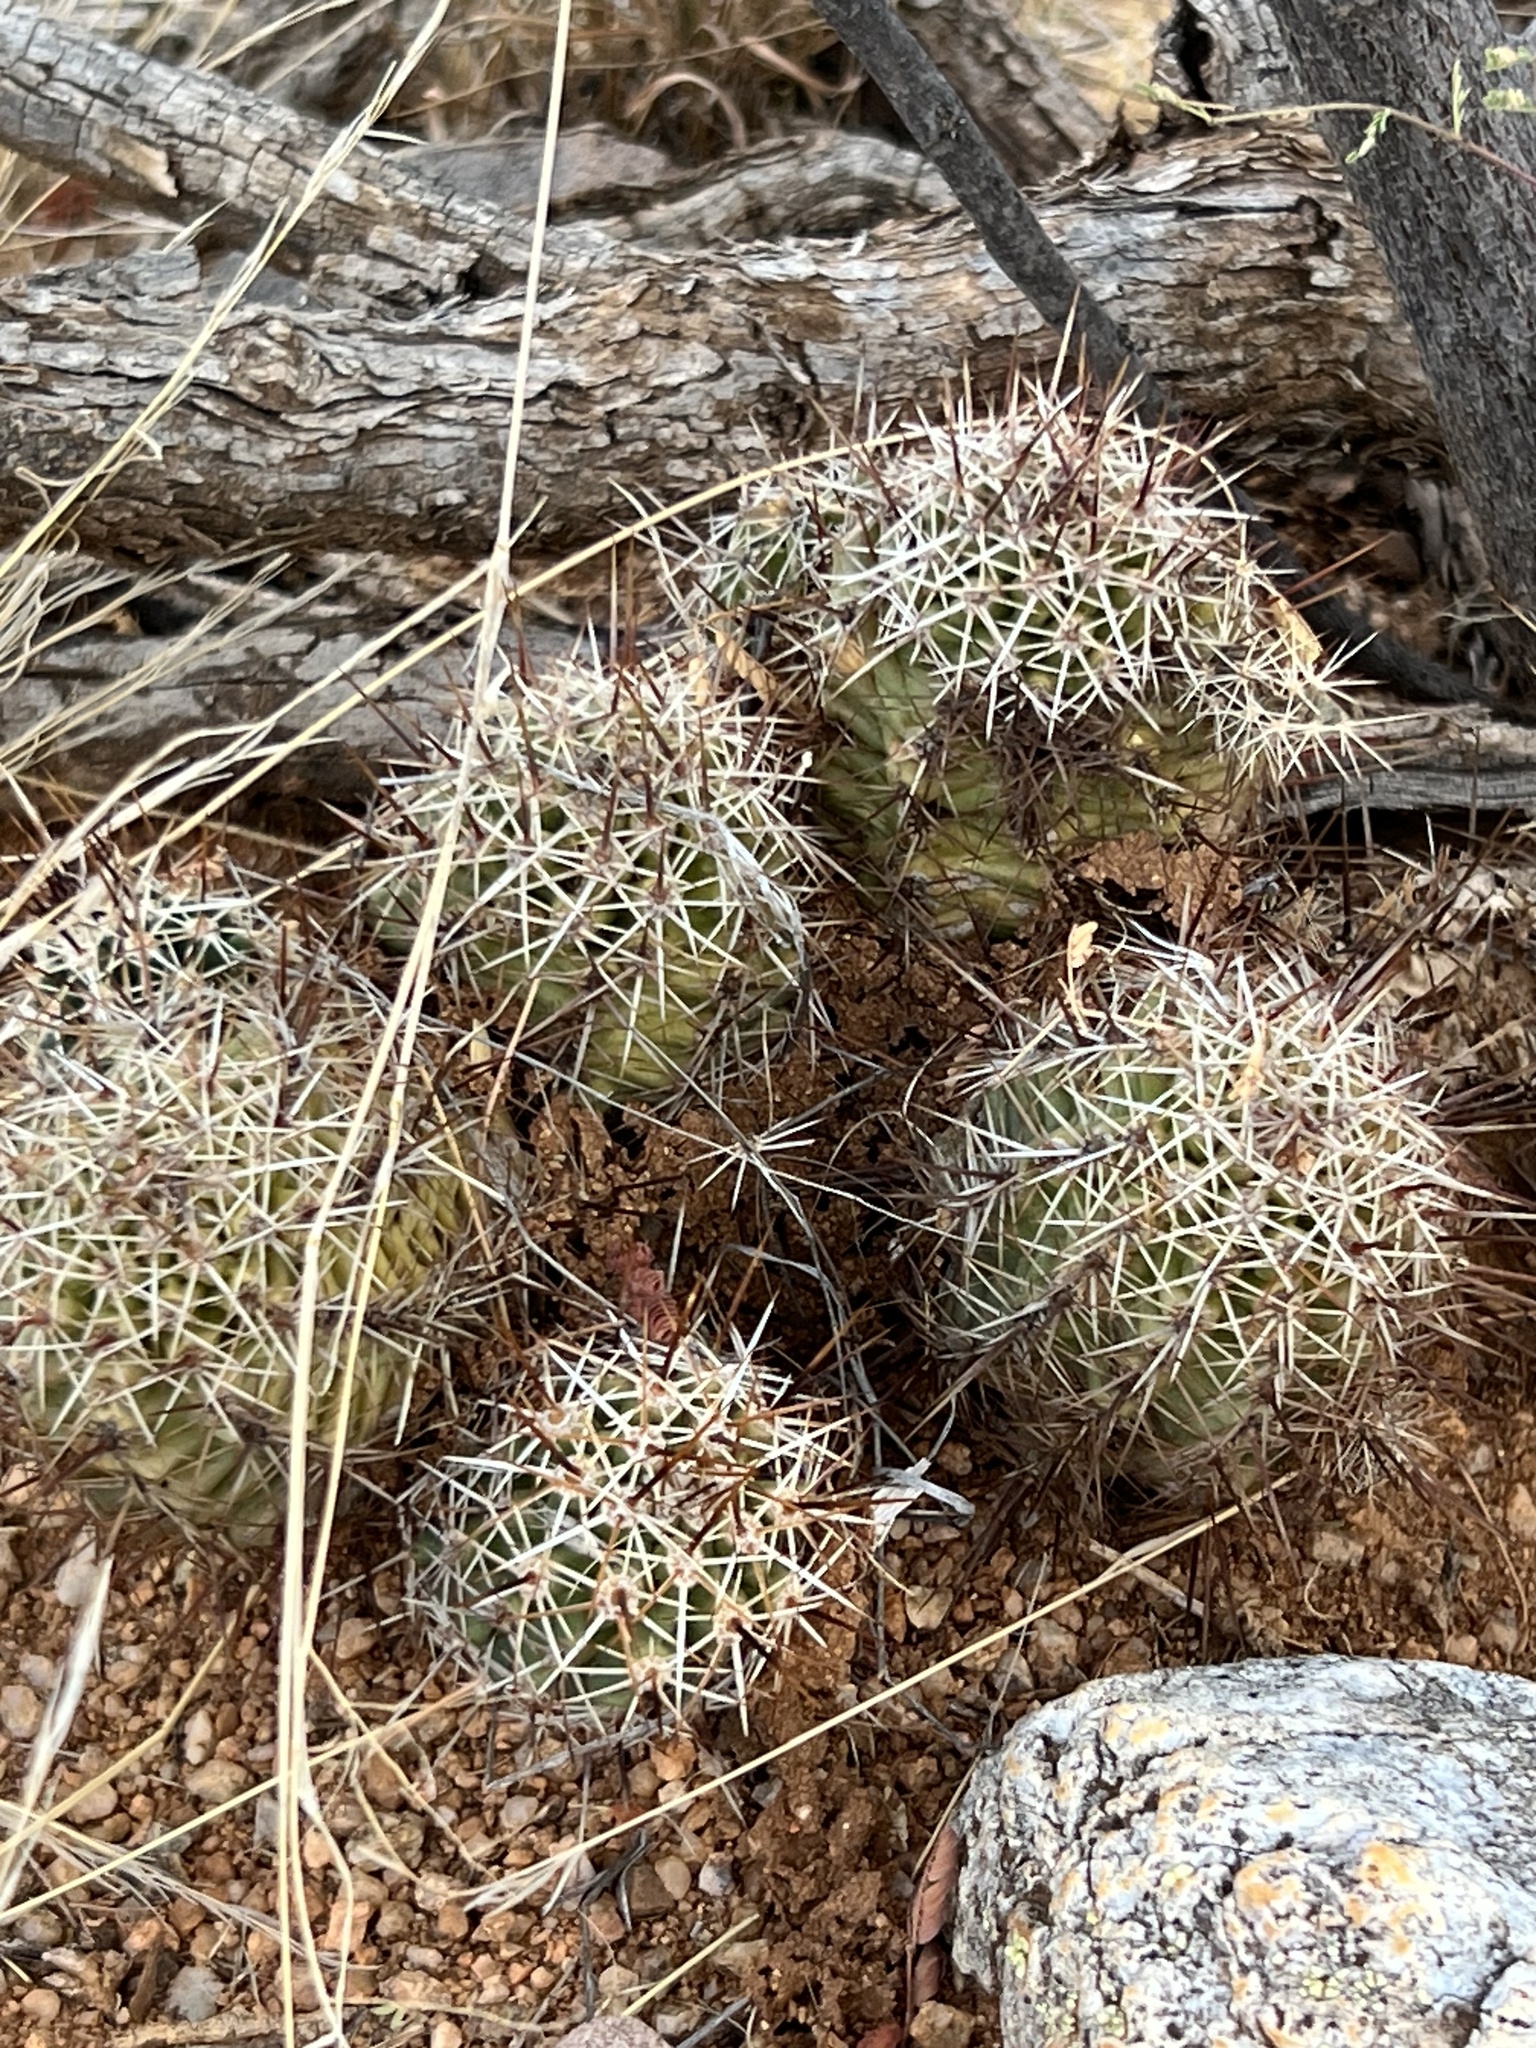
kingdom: Plantae
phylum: Tracheophyta
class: Magnoliopsida
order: Caryophyllales
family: Cactaceae
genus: Echinocereus
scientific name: Echinocereus fasciculatus
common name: Bundle hedgehog
